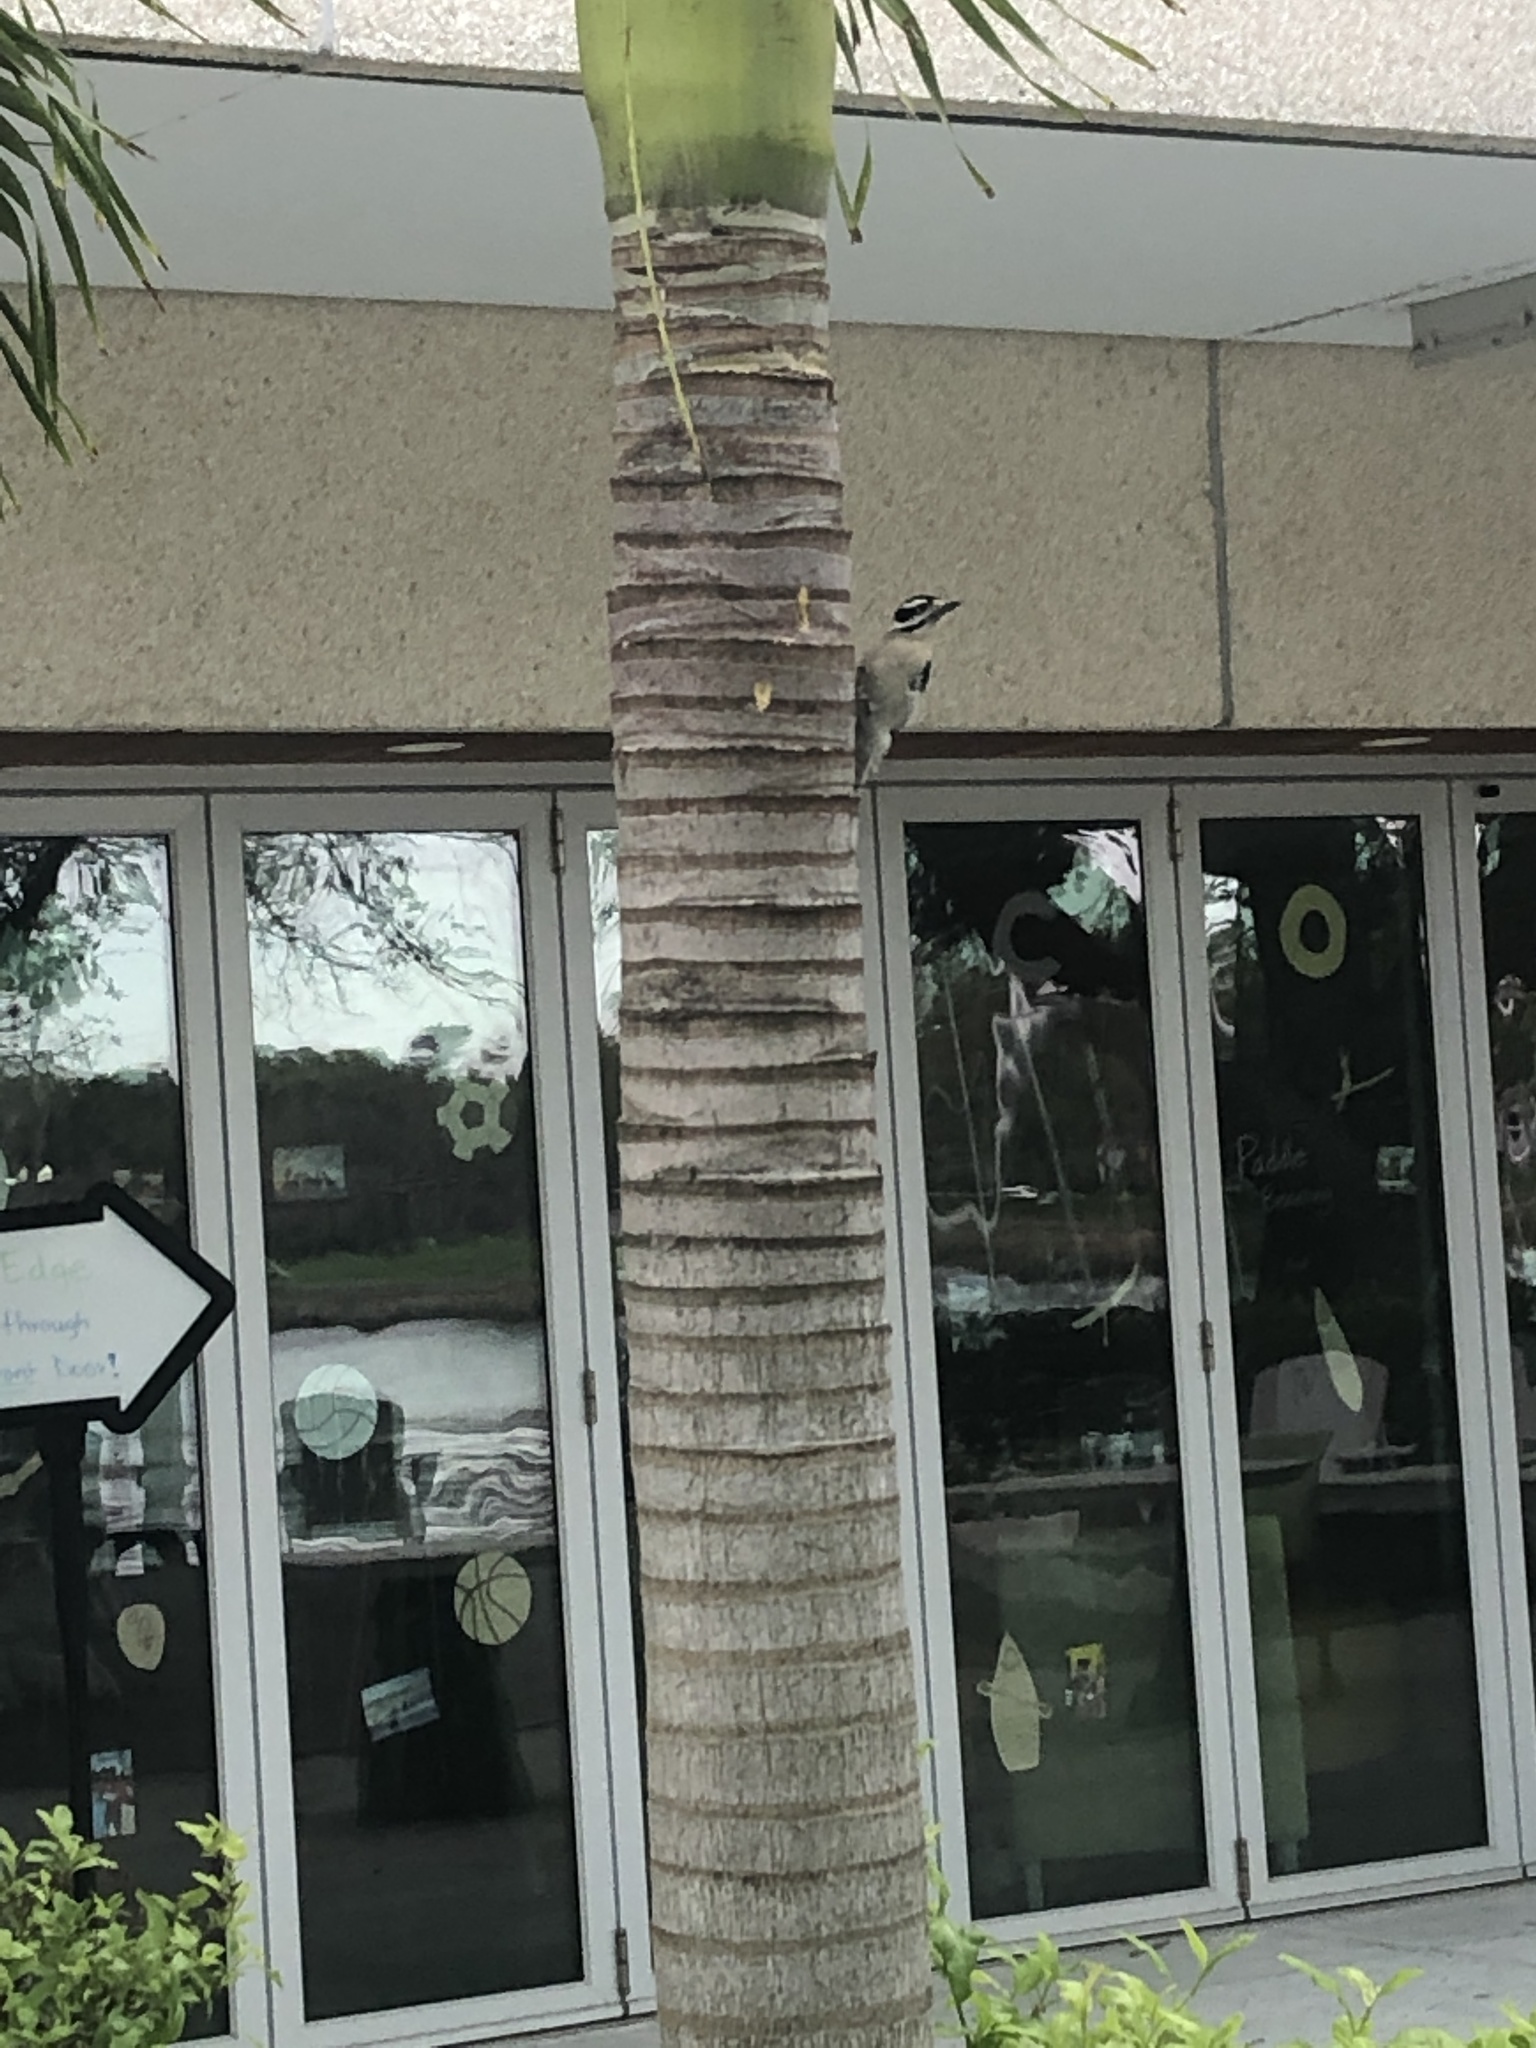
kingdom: Animalia
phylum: Chordata
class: Aves
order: Piciformes
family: Picidae
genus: Dryobates
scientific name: Dryobates pubescens
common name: Downy woodpecker
